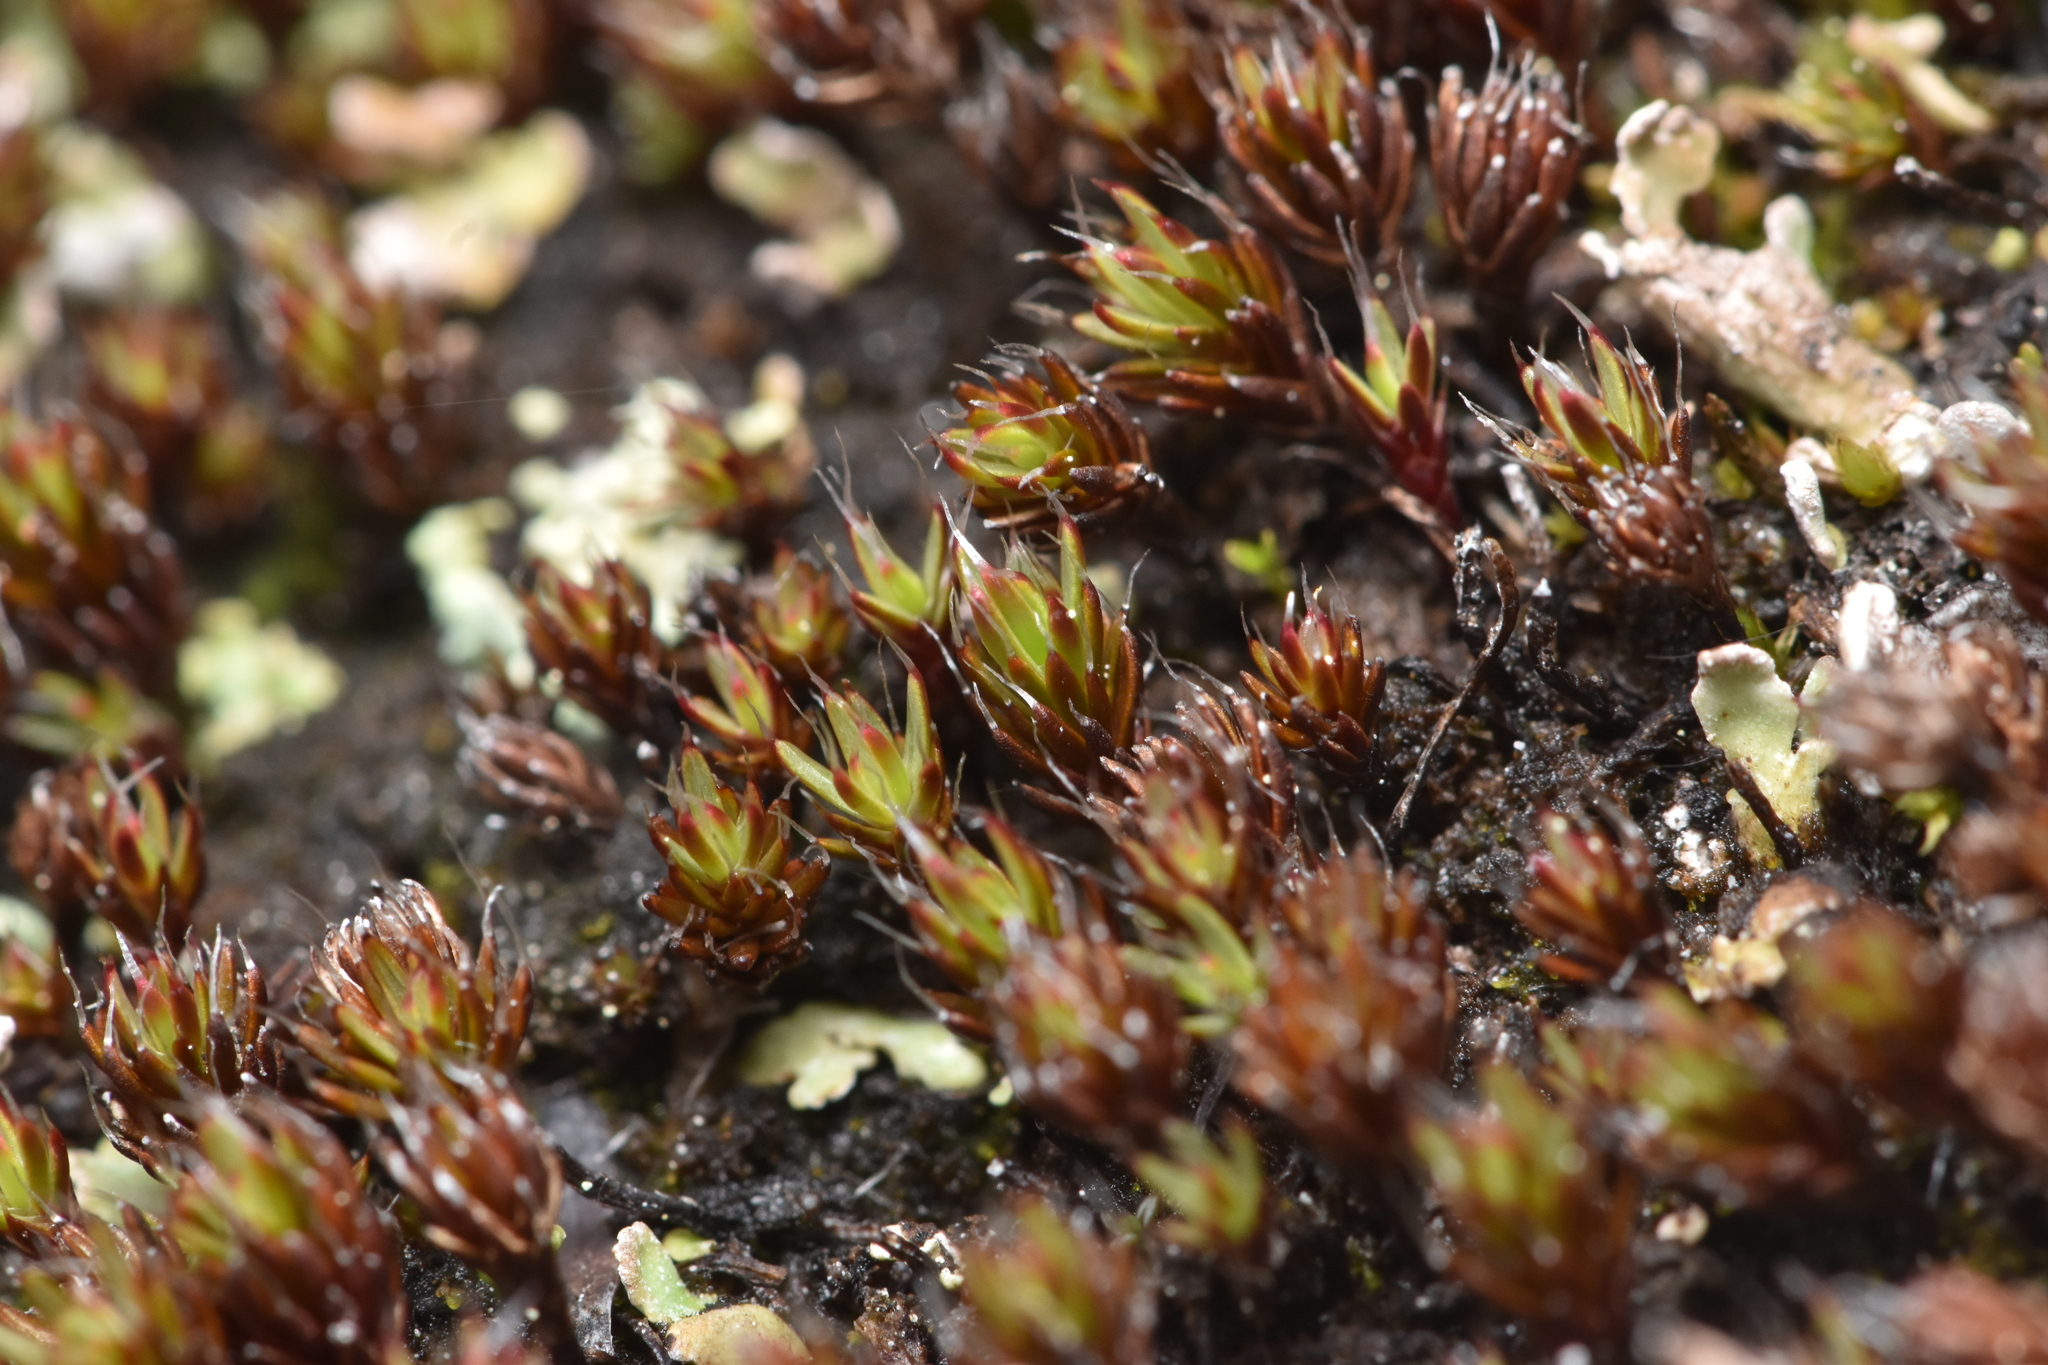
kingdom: Plantae
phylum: Bryophyta
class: Polytrichopsida
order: Polytrichales
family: Polytrichaceae
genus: Polytrichum
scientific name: Polytrichum piliferum
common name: Bristly haircap
